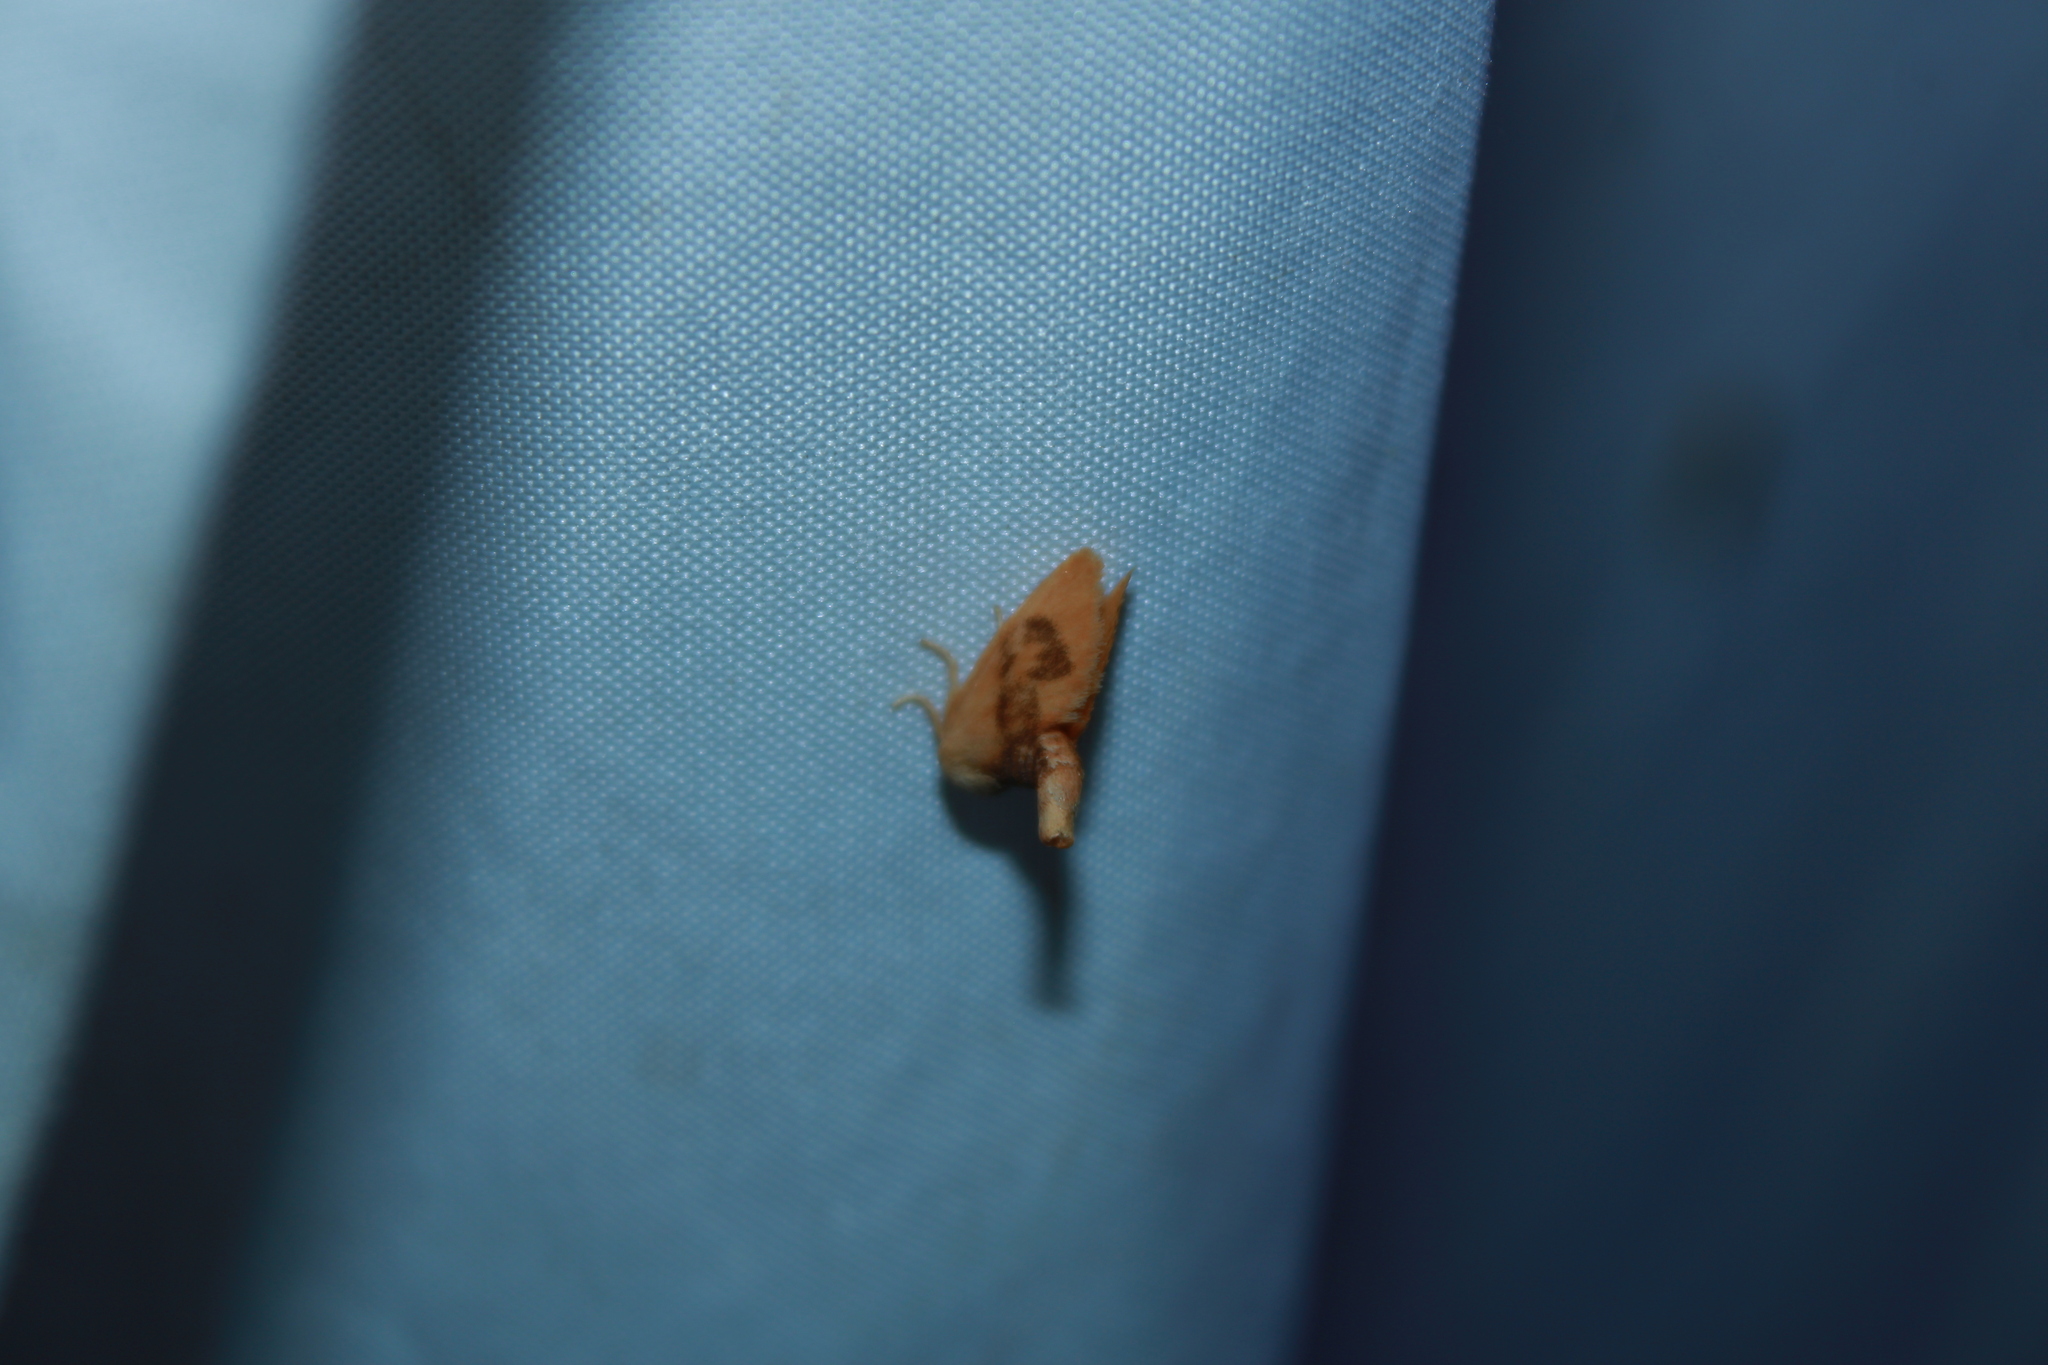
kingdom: Animalia
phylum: Arthropoda
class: Insecta
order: Lepidoptera
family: Limacodidae
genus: Tortricidia
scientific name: Tortricidia flexuosa
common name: Abbreviated button slug moth
